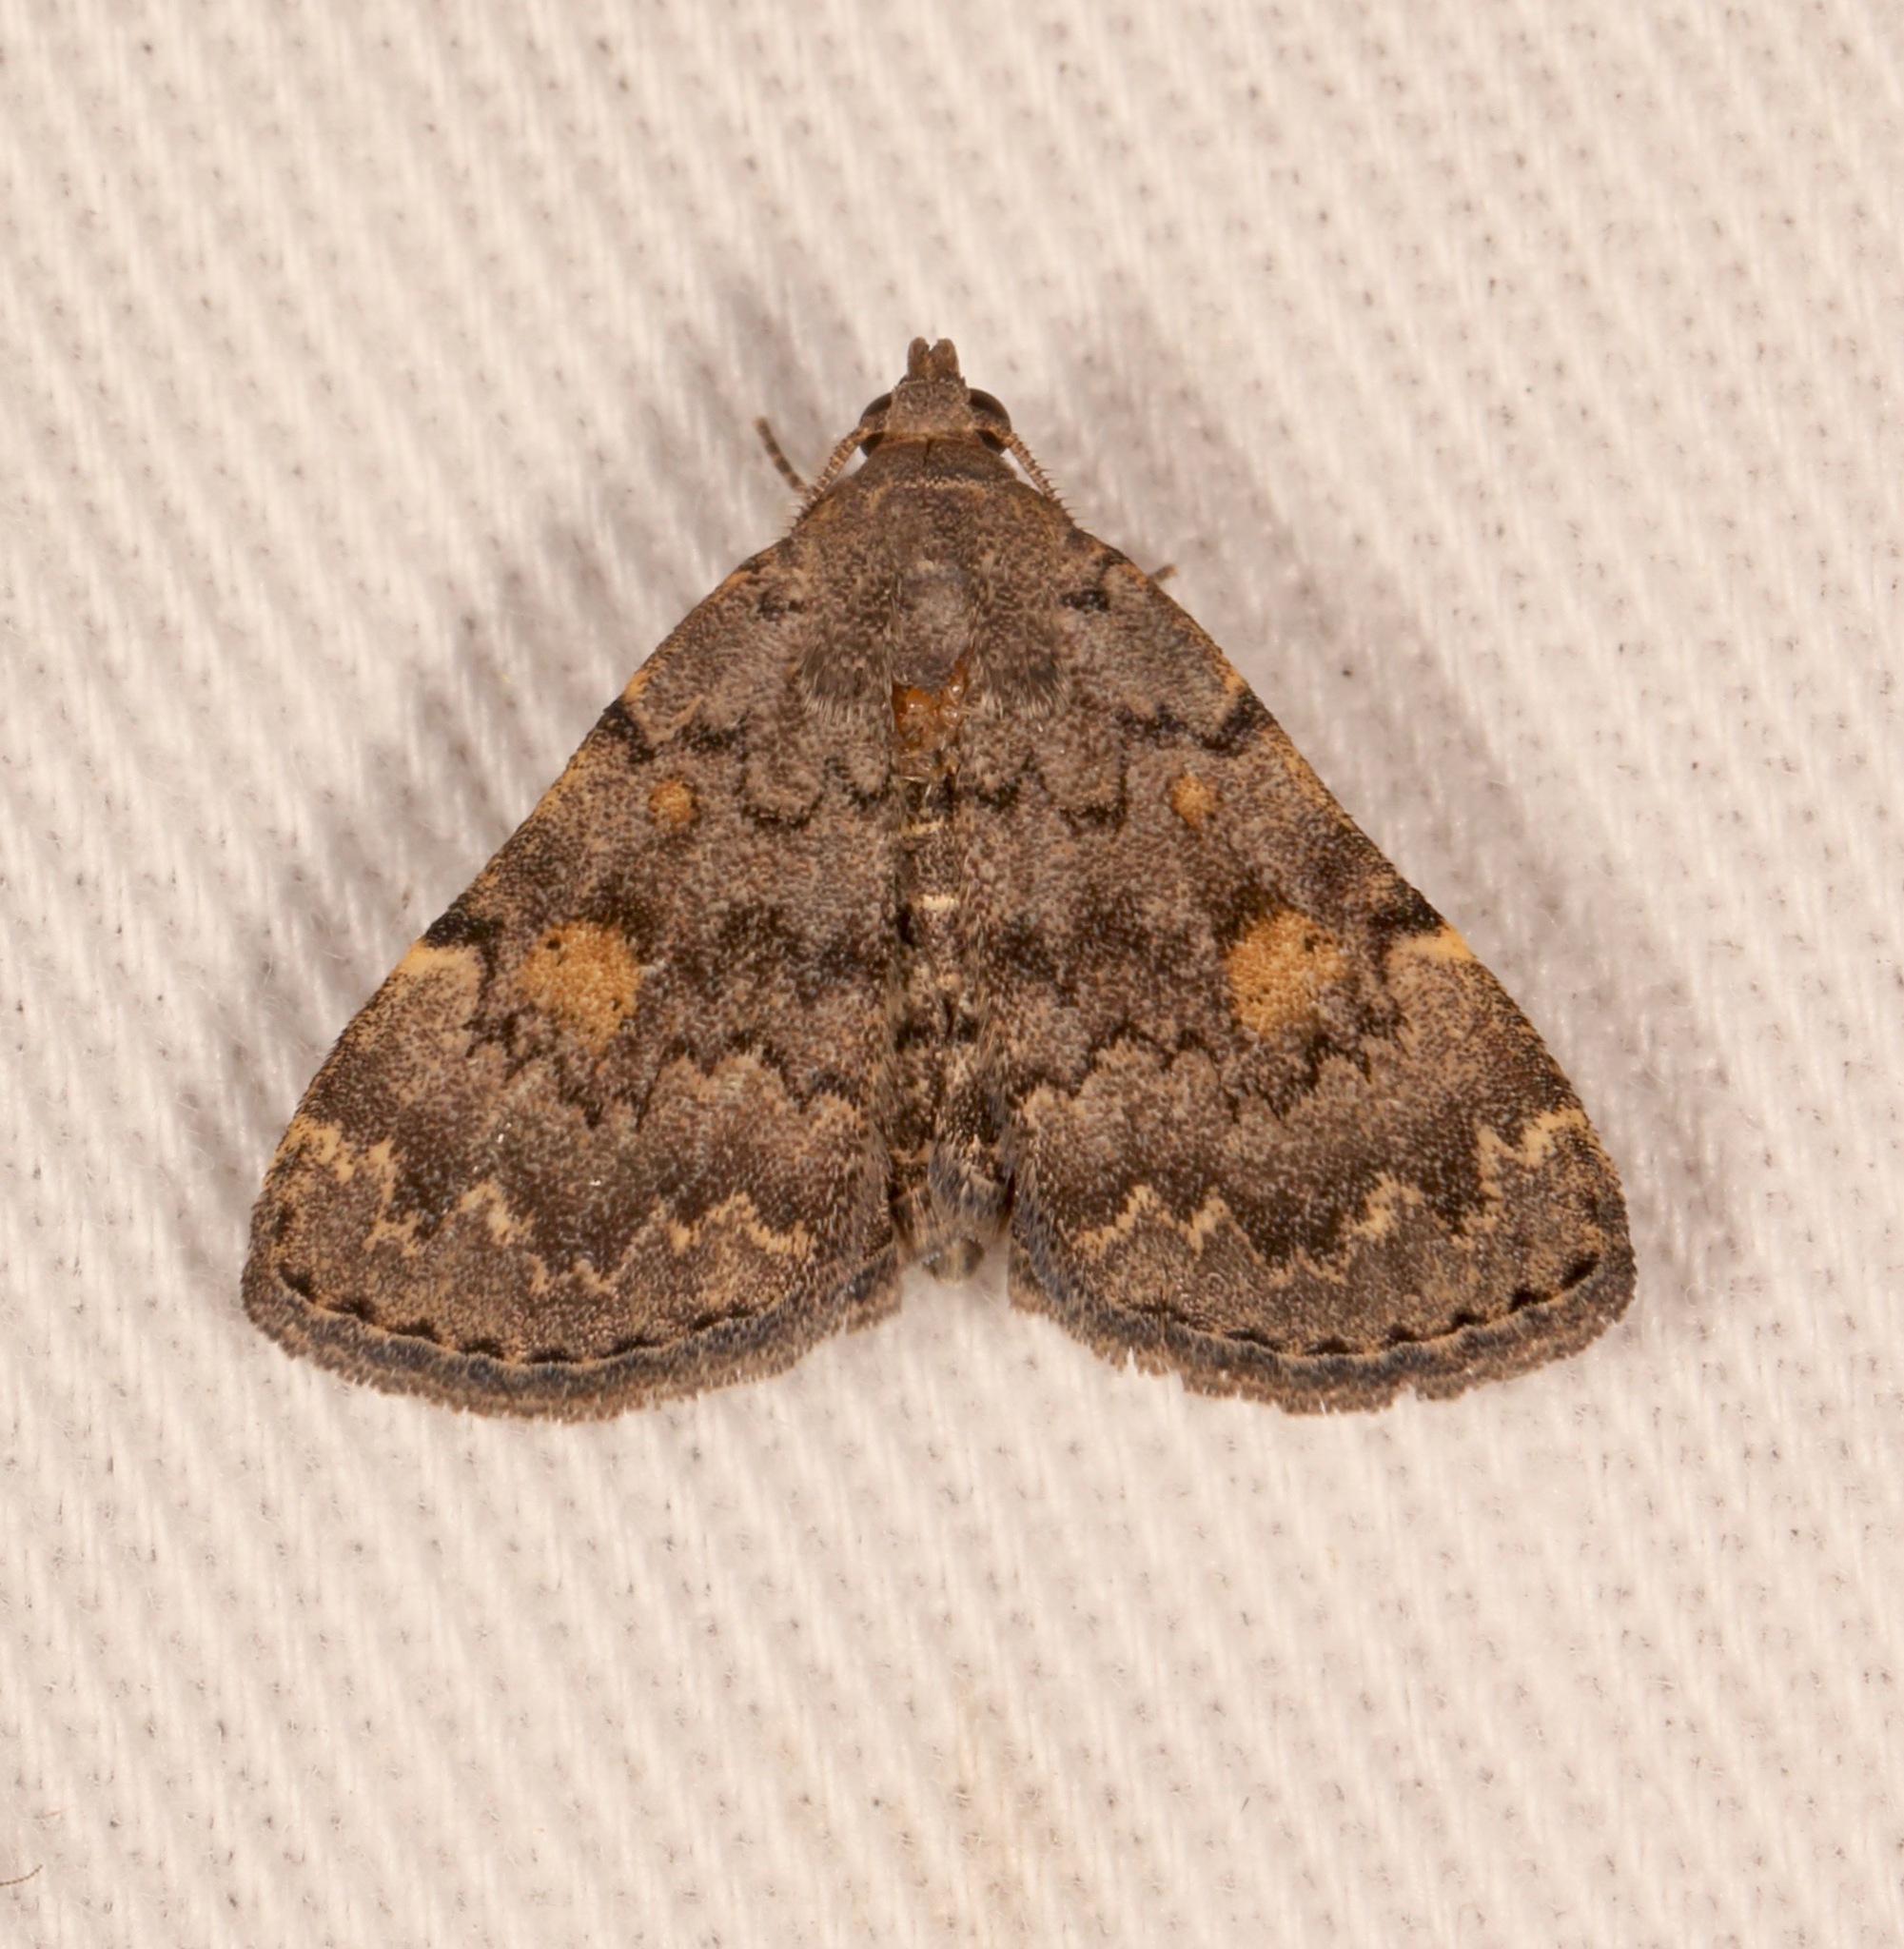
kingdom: Animalia
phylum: Arthropoda
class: Insecta
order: Lepidoptera
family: Erebidae
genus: Idia
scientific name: Idia aemula
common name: Common idia moth
